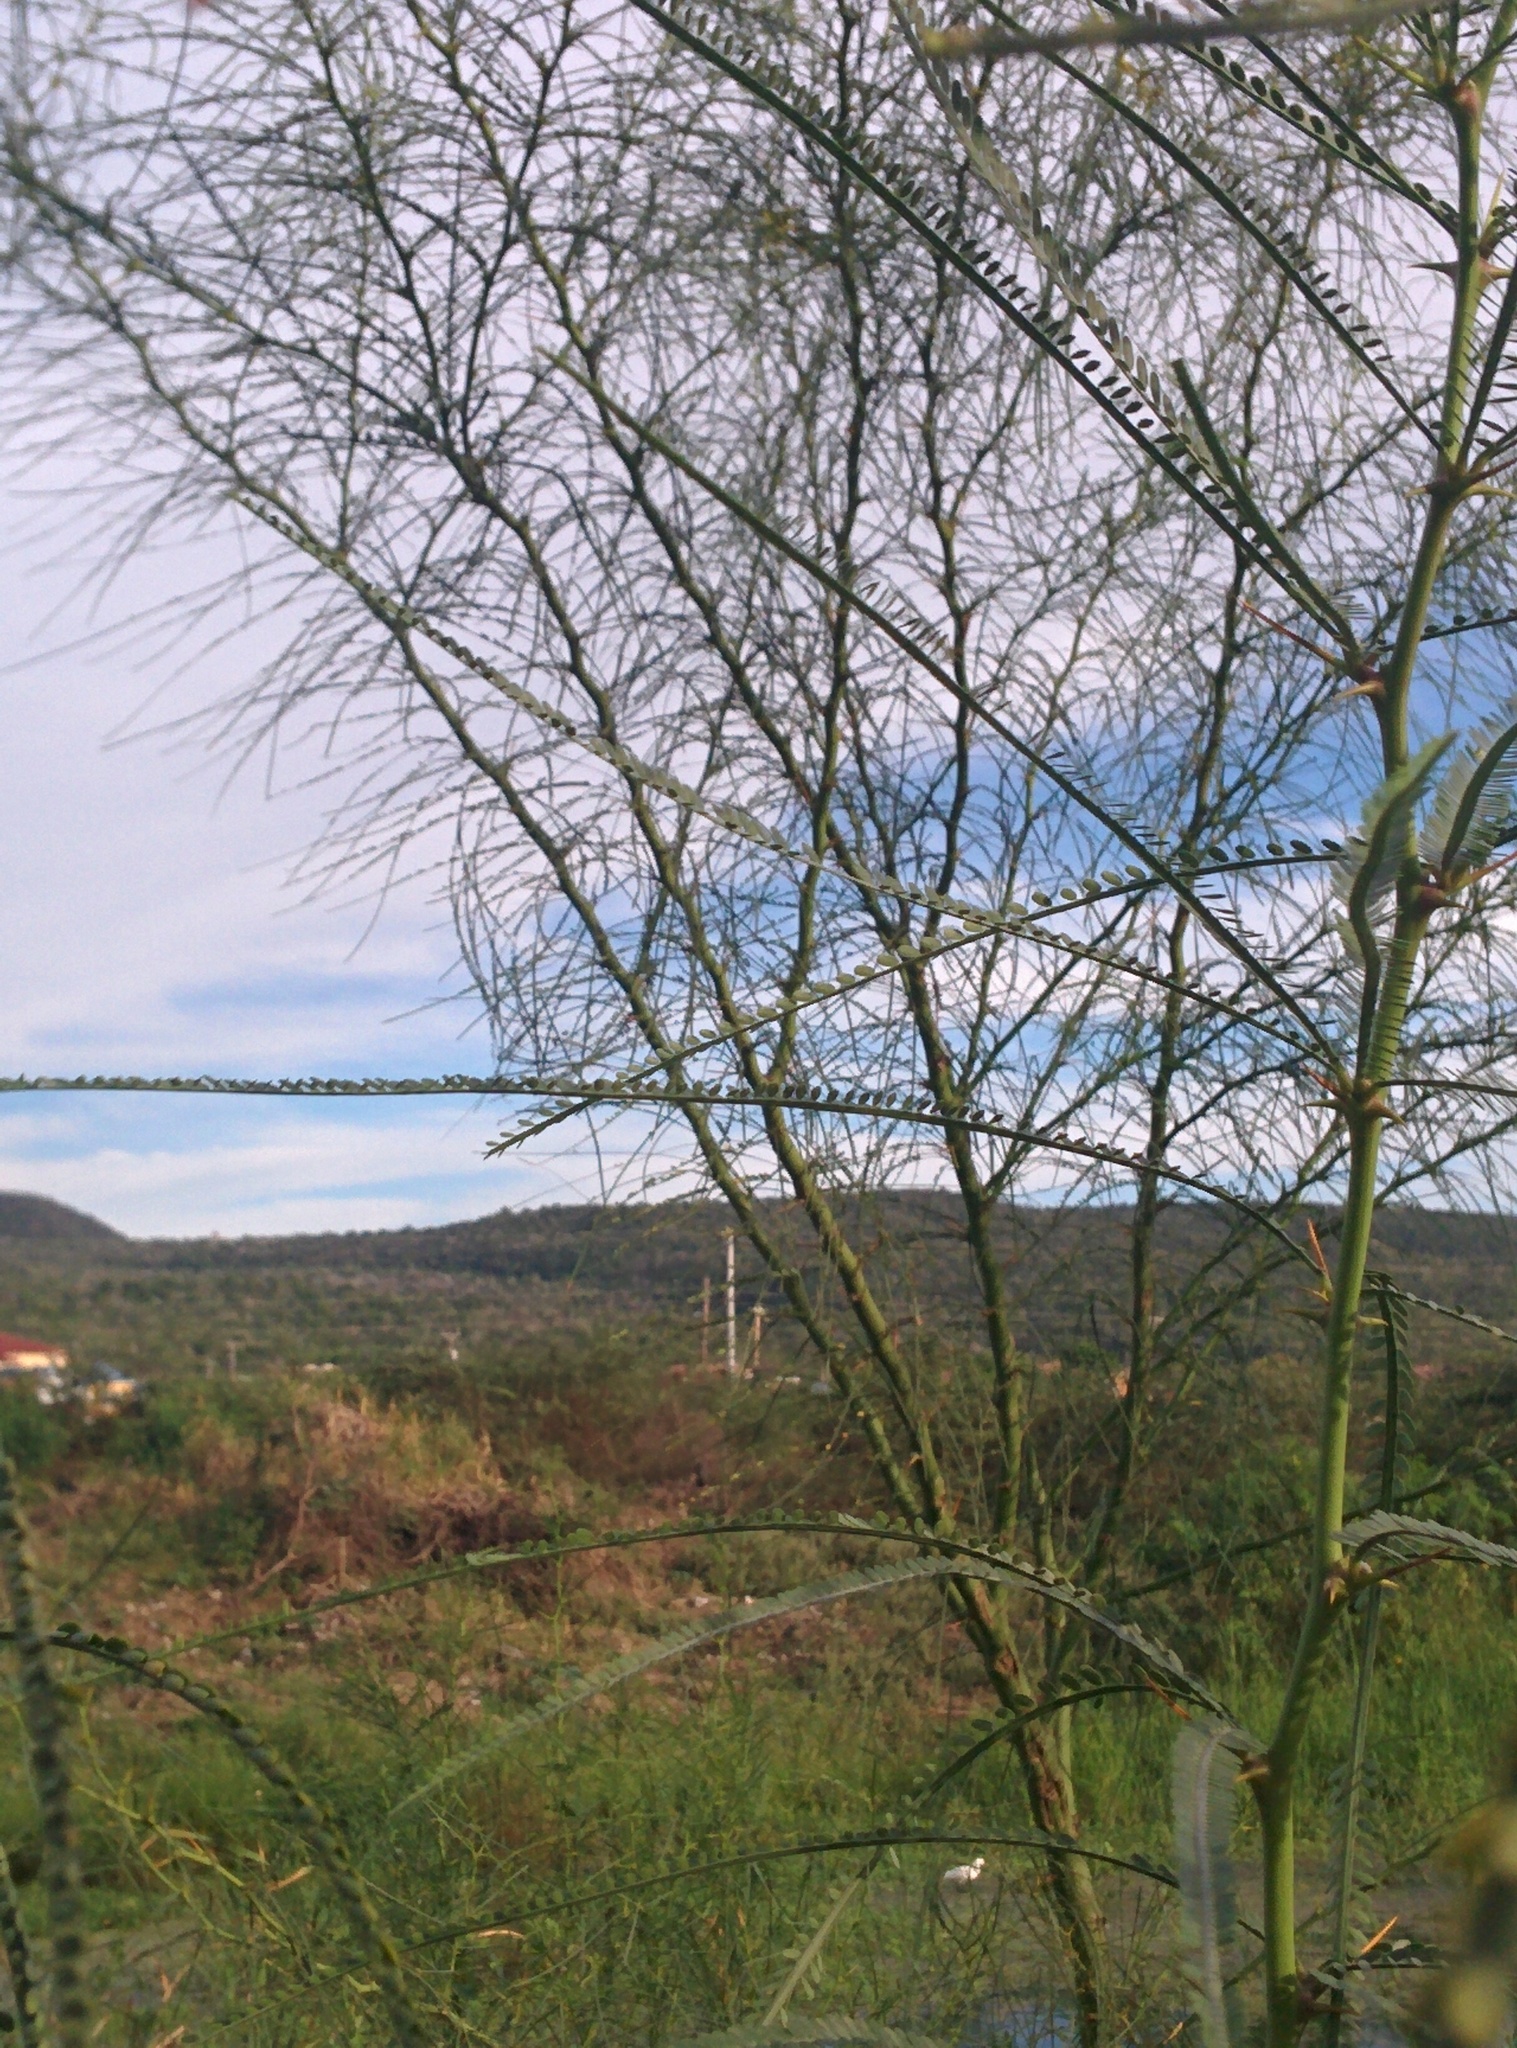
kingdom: Plantae
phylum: Tracheophyta
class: Magnoliopsida
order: Fabales
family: Fabaceae
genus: Parkinsonia
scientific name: Parkinsonia aculeata
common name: Jerusalem thorn
